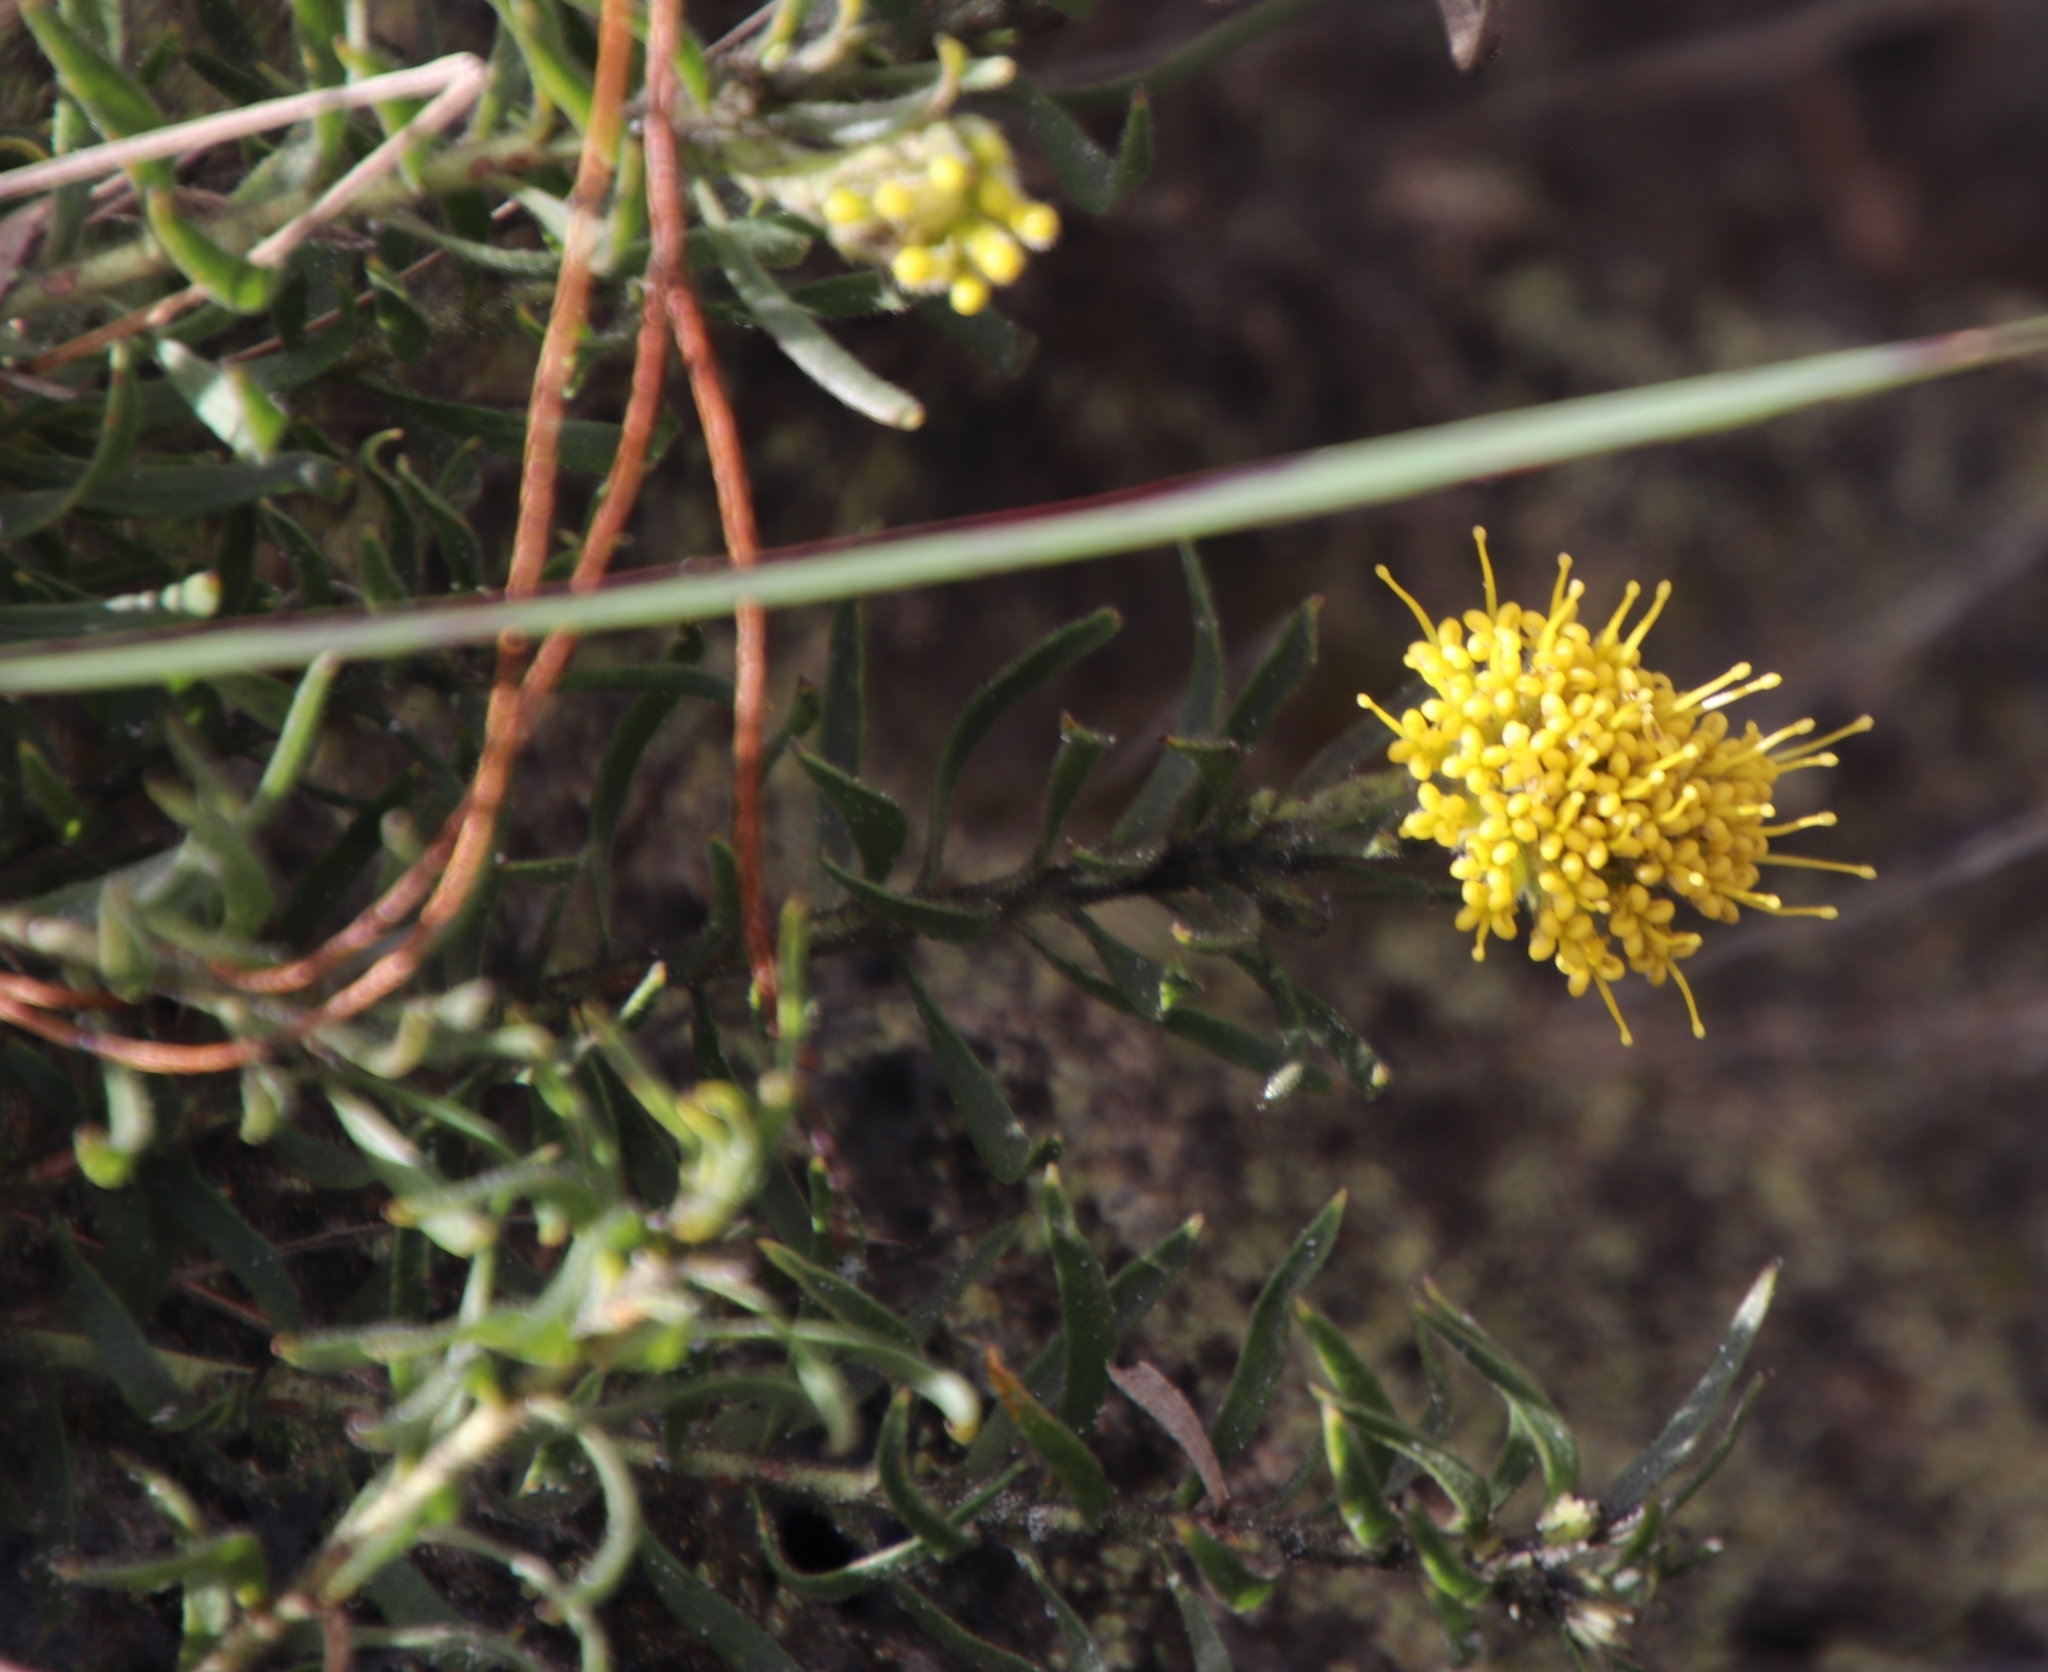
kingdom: Plantae
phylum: Tracheophyta
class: Magnoliopsida
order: Proteales
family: Proteaceae
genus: Leucospermum
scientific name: Leucospermum prostratum
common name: Yellow-trailing pincushion
